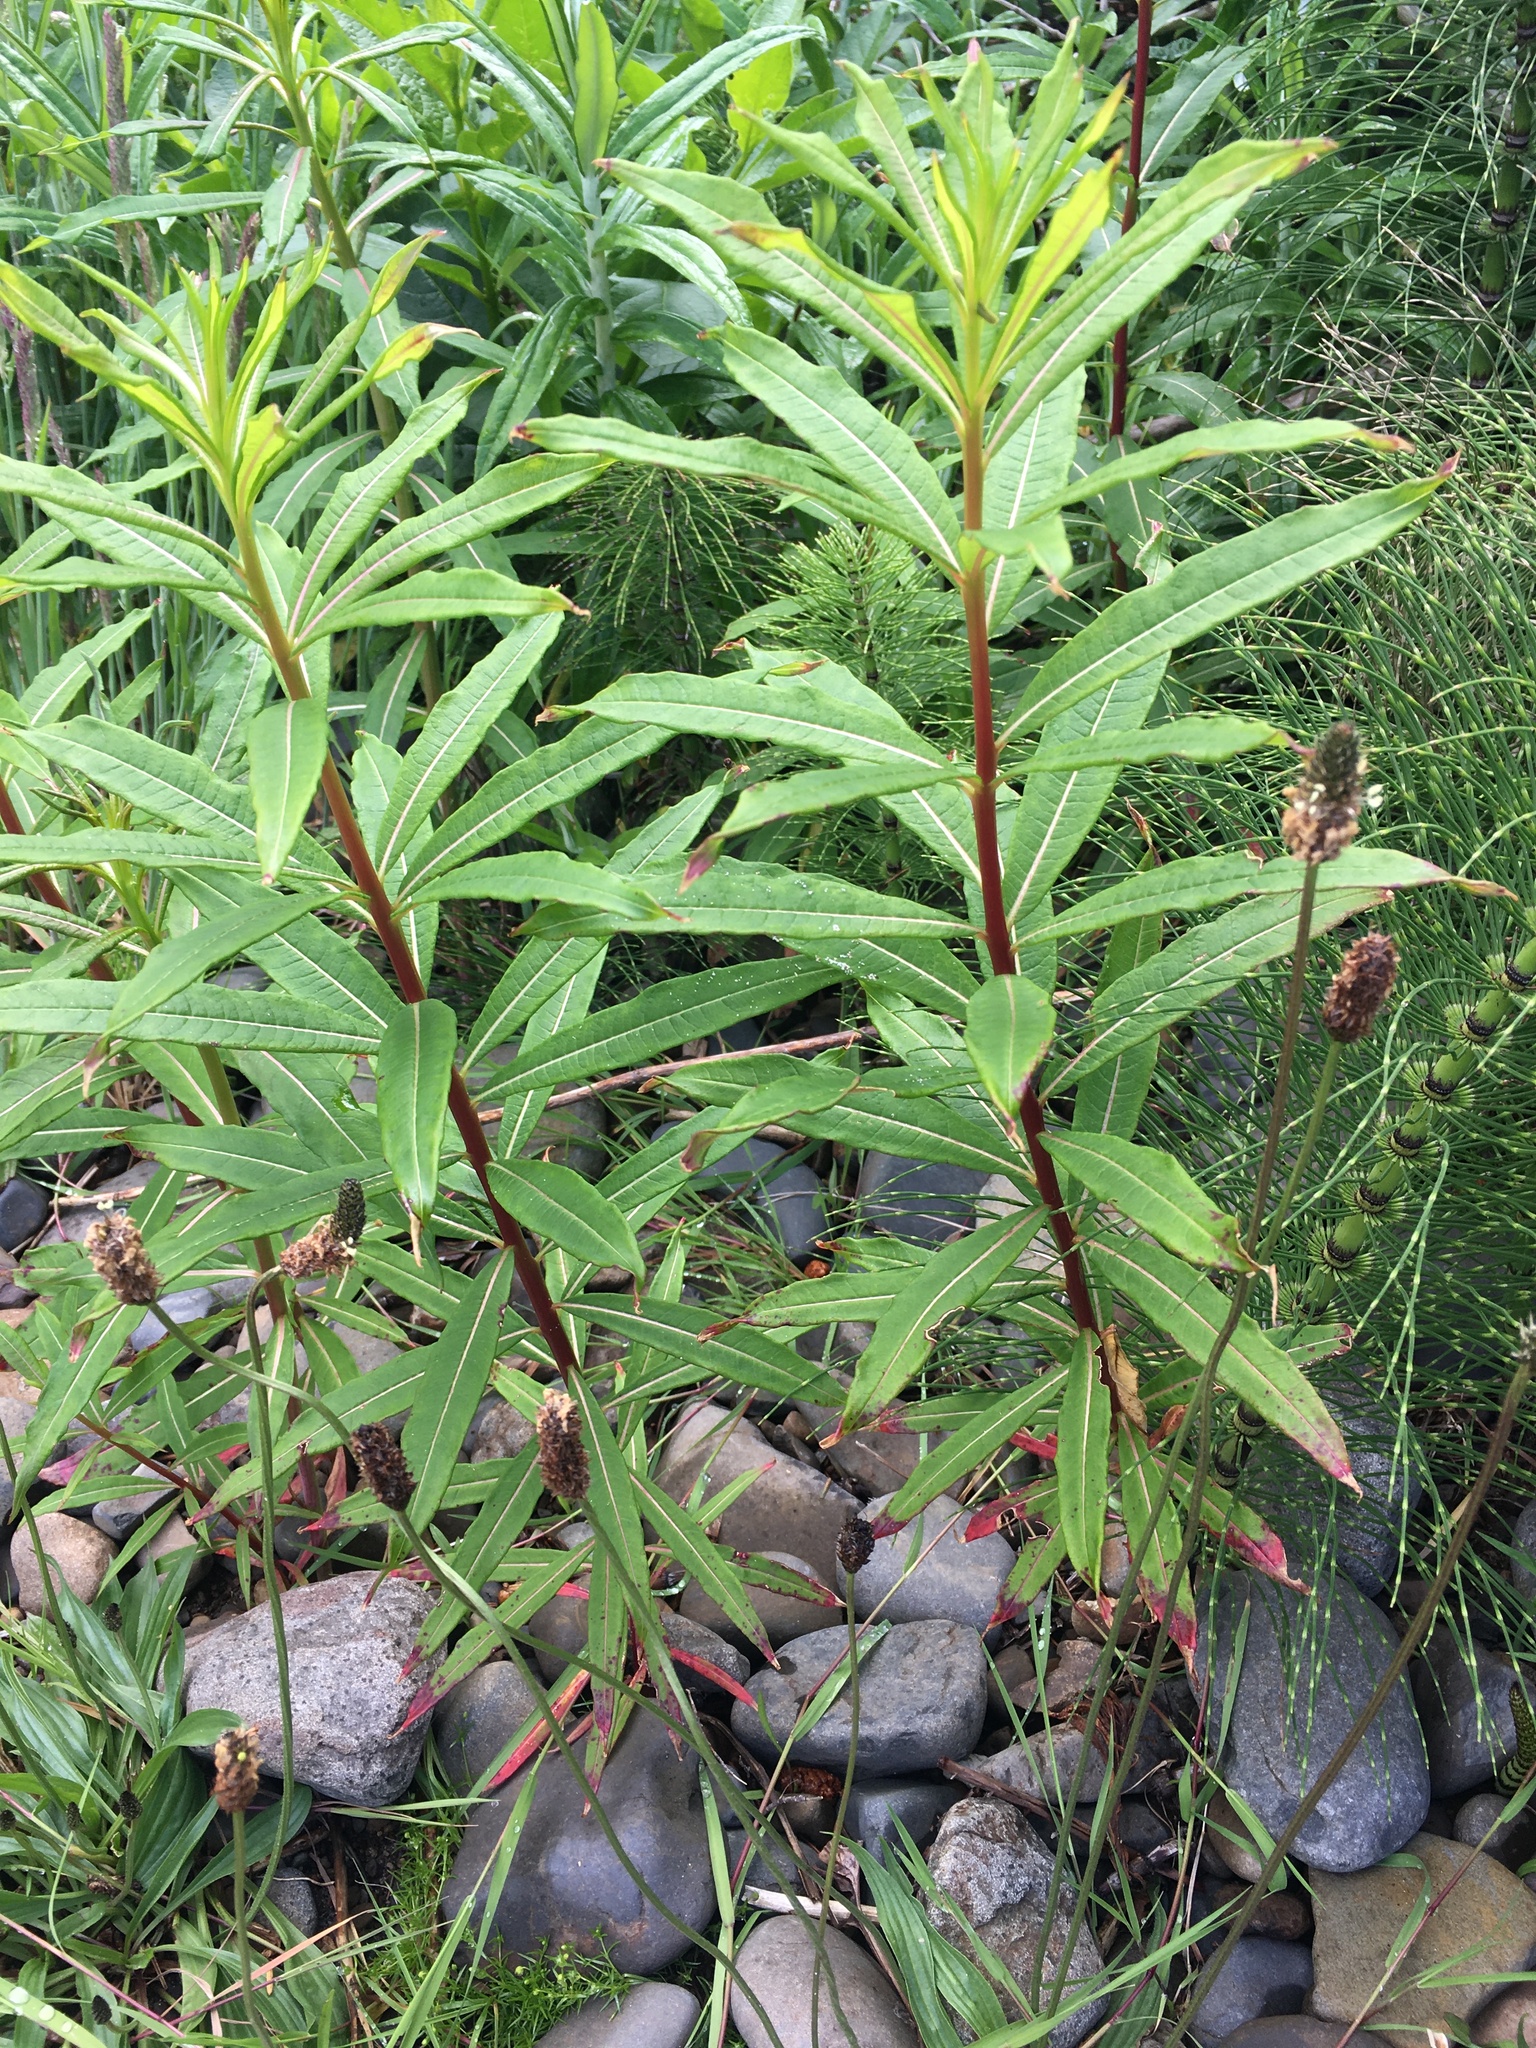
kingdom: Plantae
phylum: Tracheophyta
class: Magnoliopsida
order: Myrtales
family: Onagraceae
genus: Chamaenerion
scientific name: Chamaenerion angustifolium
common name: Fireweed
